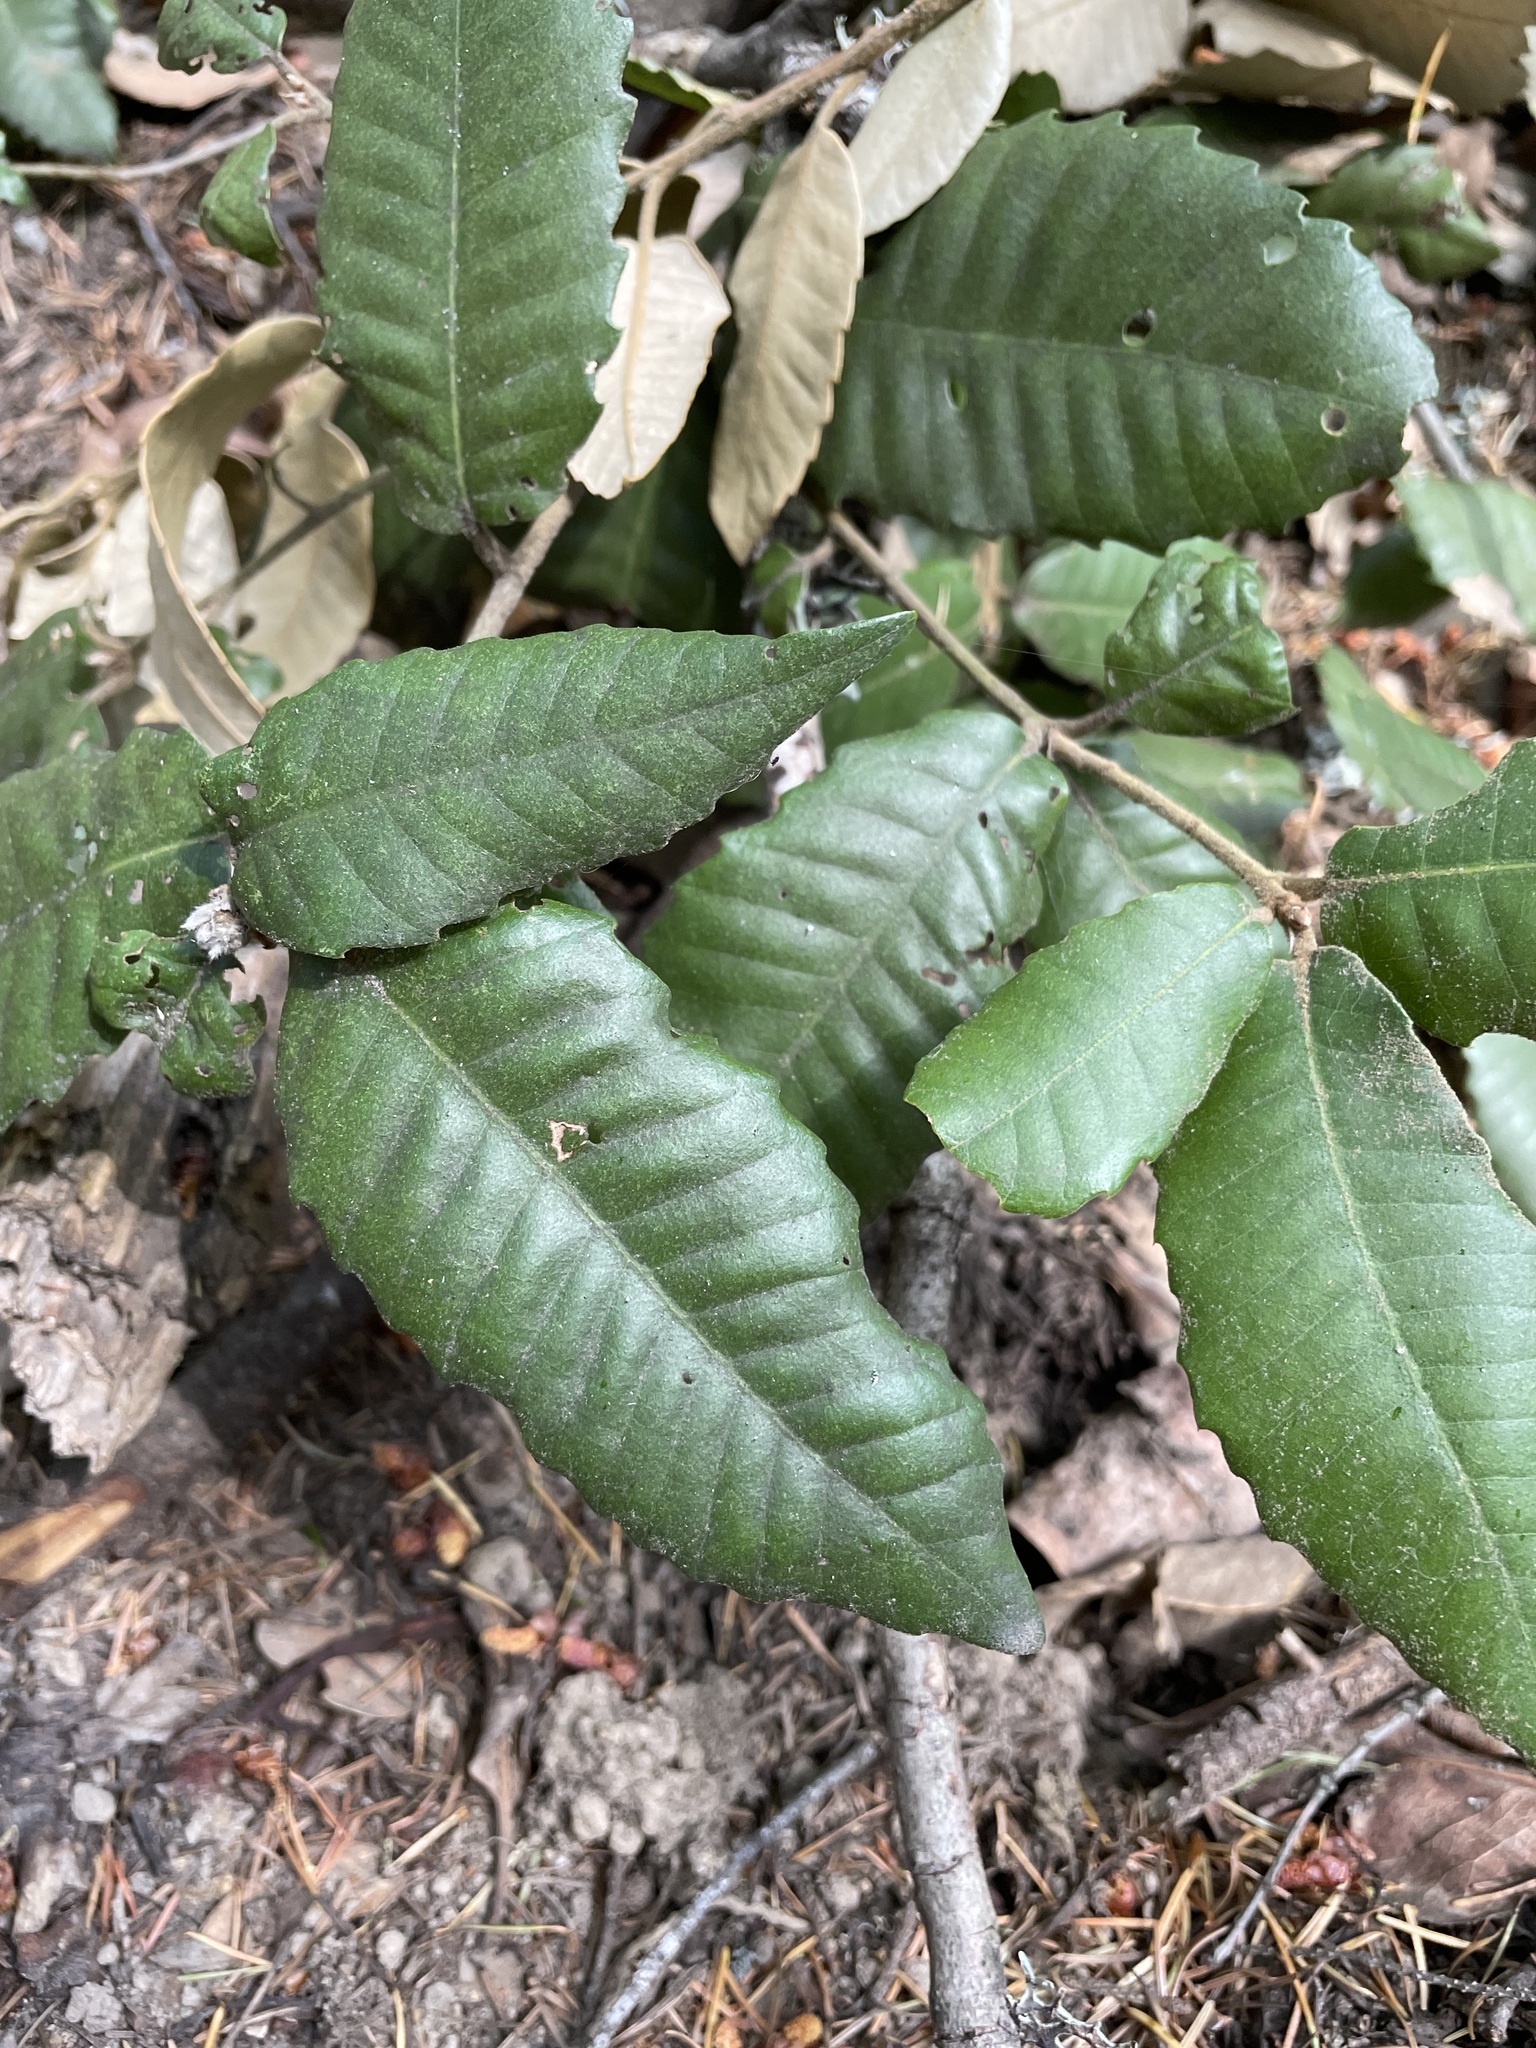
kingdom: Plantae
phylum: Tracheophyta
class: Magnoliopsida
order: Fagales
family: Fagaceae
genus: Notholithocarpus
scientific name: Notholithocarpus densiflorus
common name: Tan bark oak
